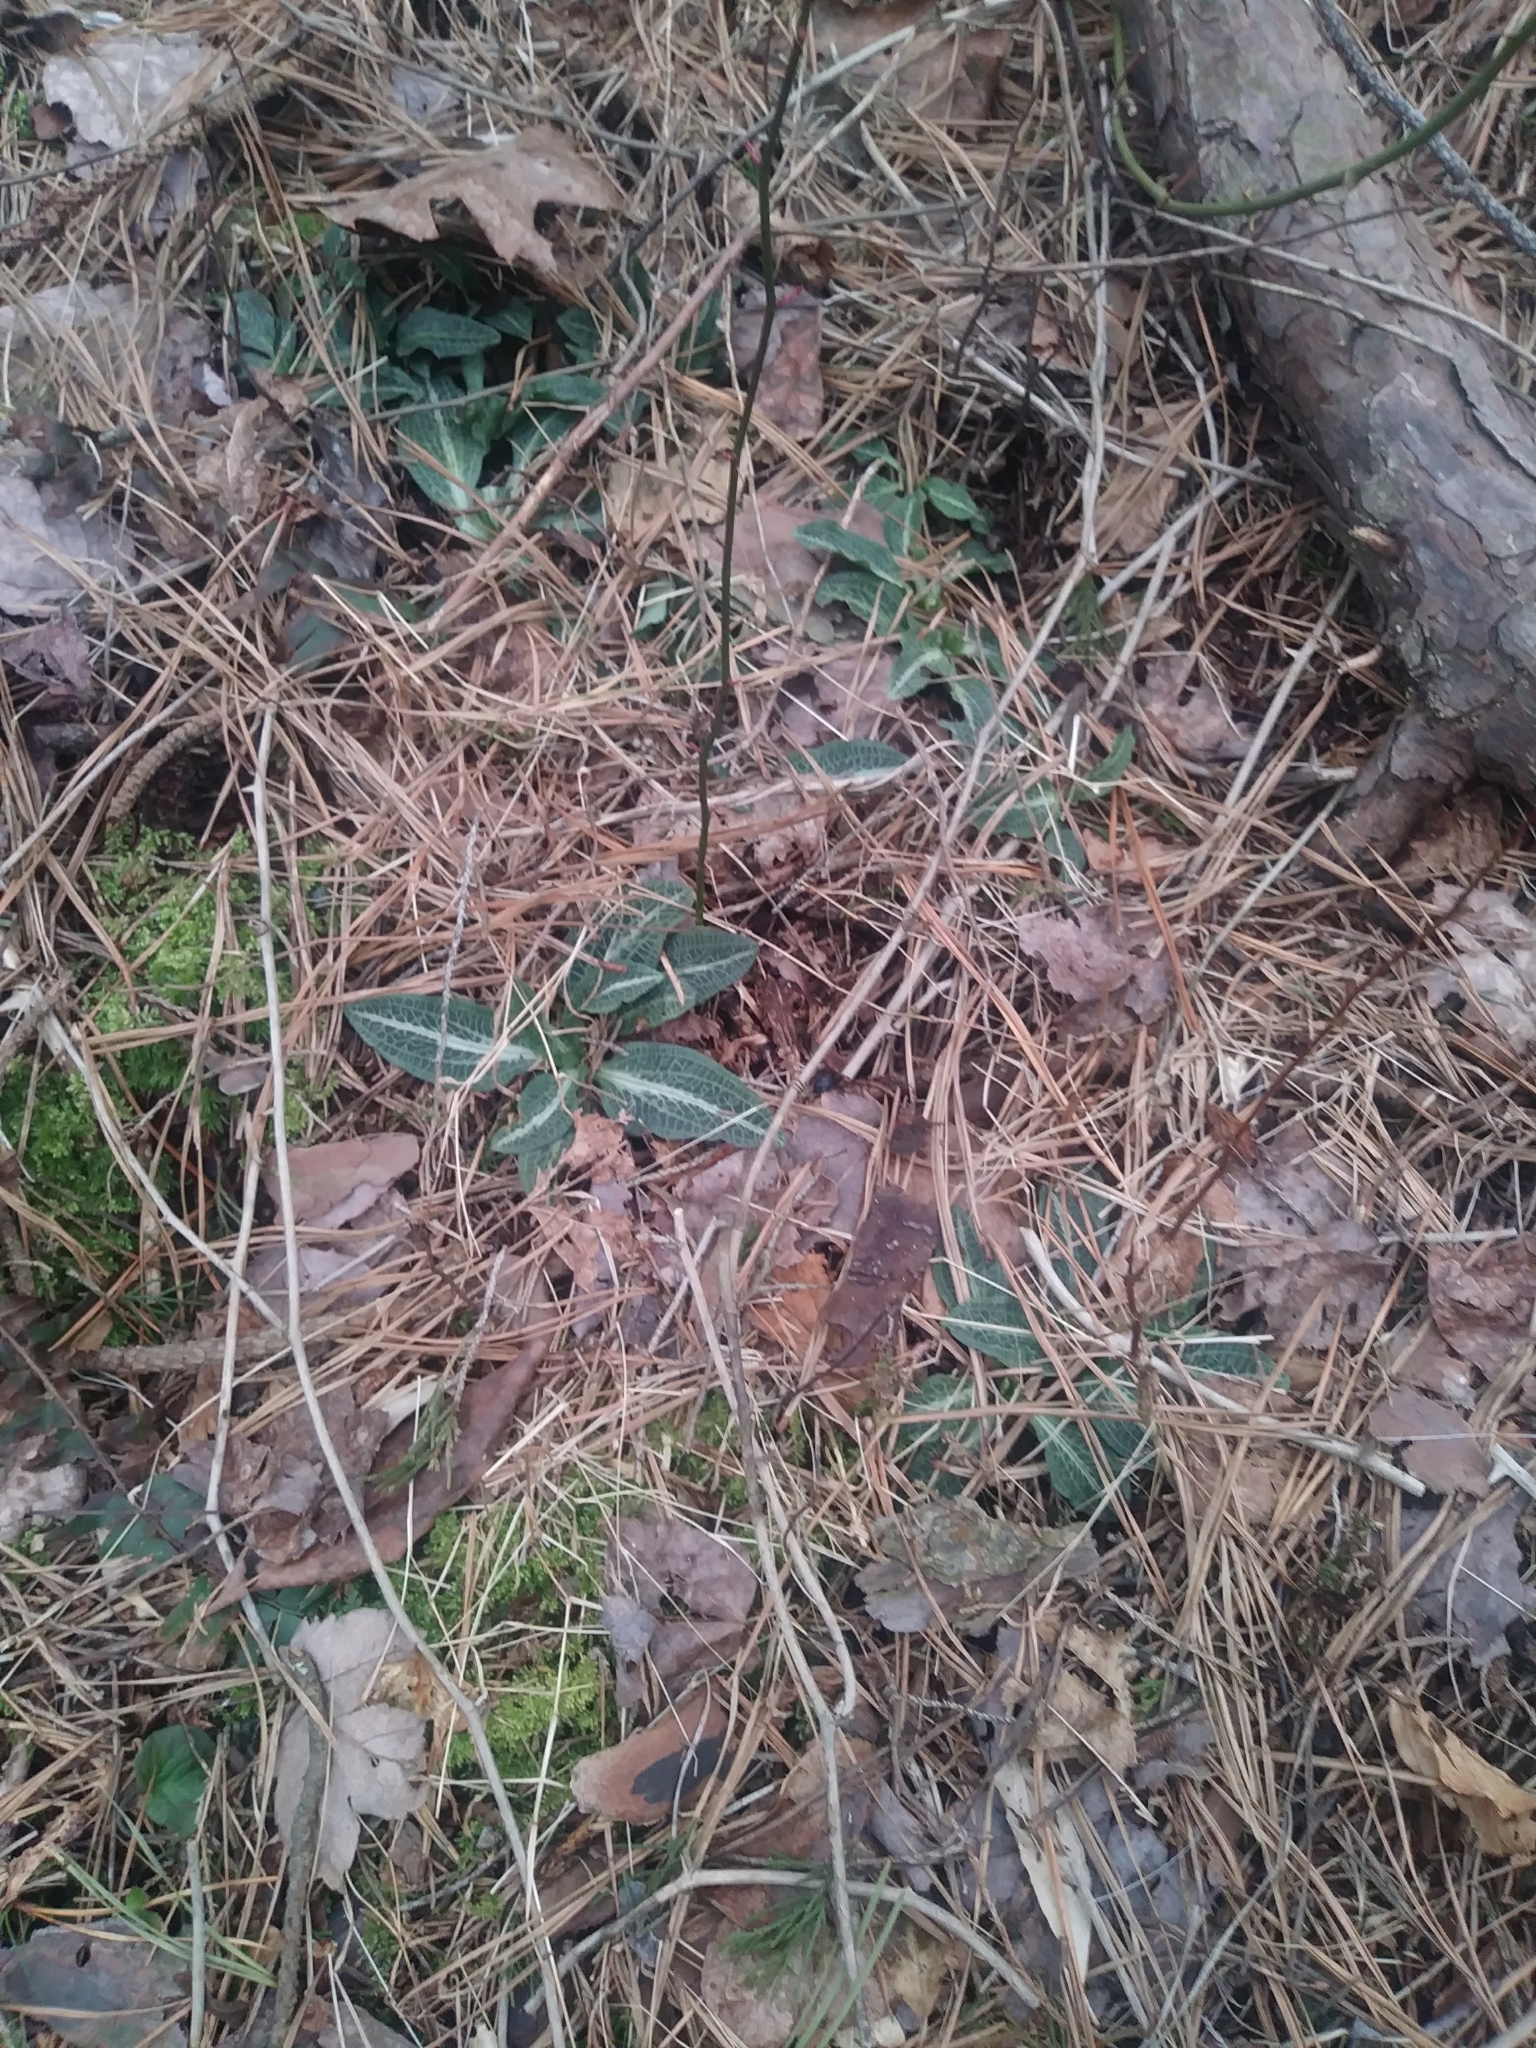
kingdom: Plantae
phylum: Tracheophyta
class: Liliopsida
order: Asparagales
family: Orchidaceae
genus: Goodyera
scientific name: Goodyera pubescens
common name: Downy rattlesnake-plantain
